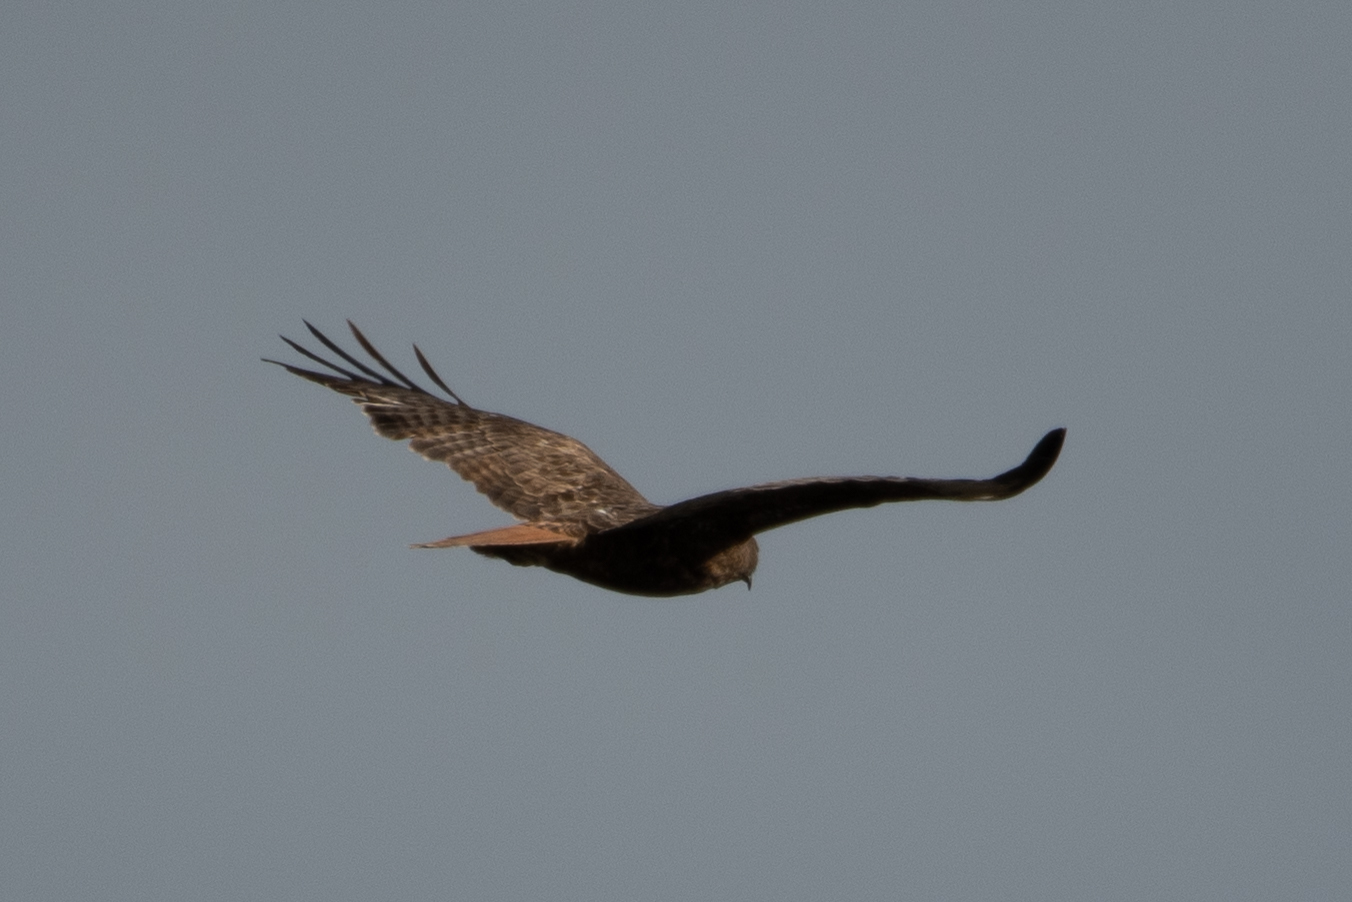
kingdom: Animalia
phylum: Chordata
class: Aves
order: Accipitriformes
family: Accipitridae
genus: Buteo
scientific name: Buteo jamaicensis
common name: Red-tailed hawk
